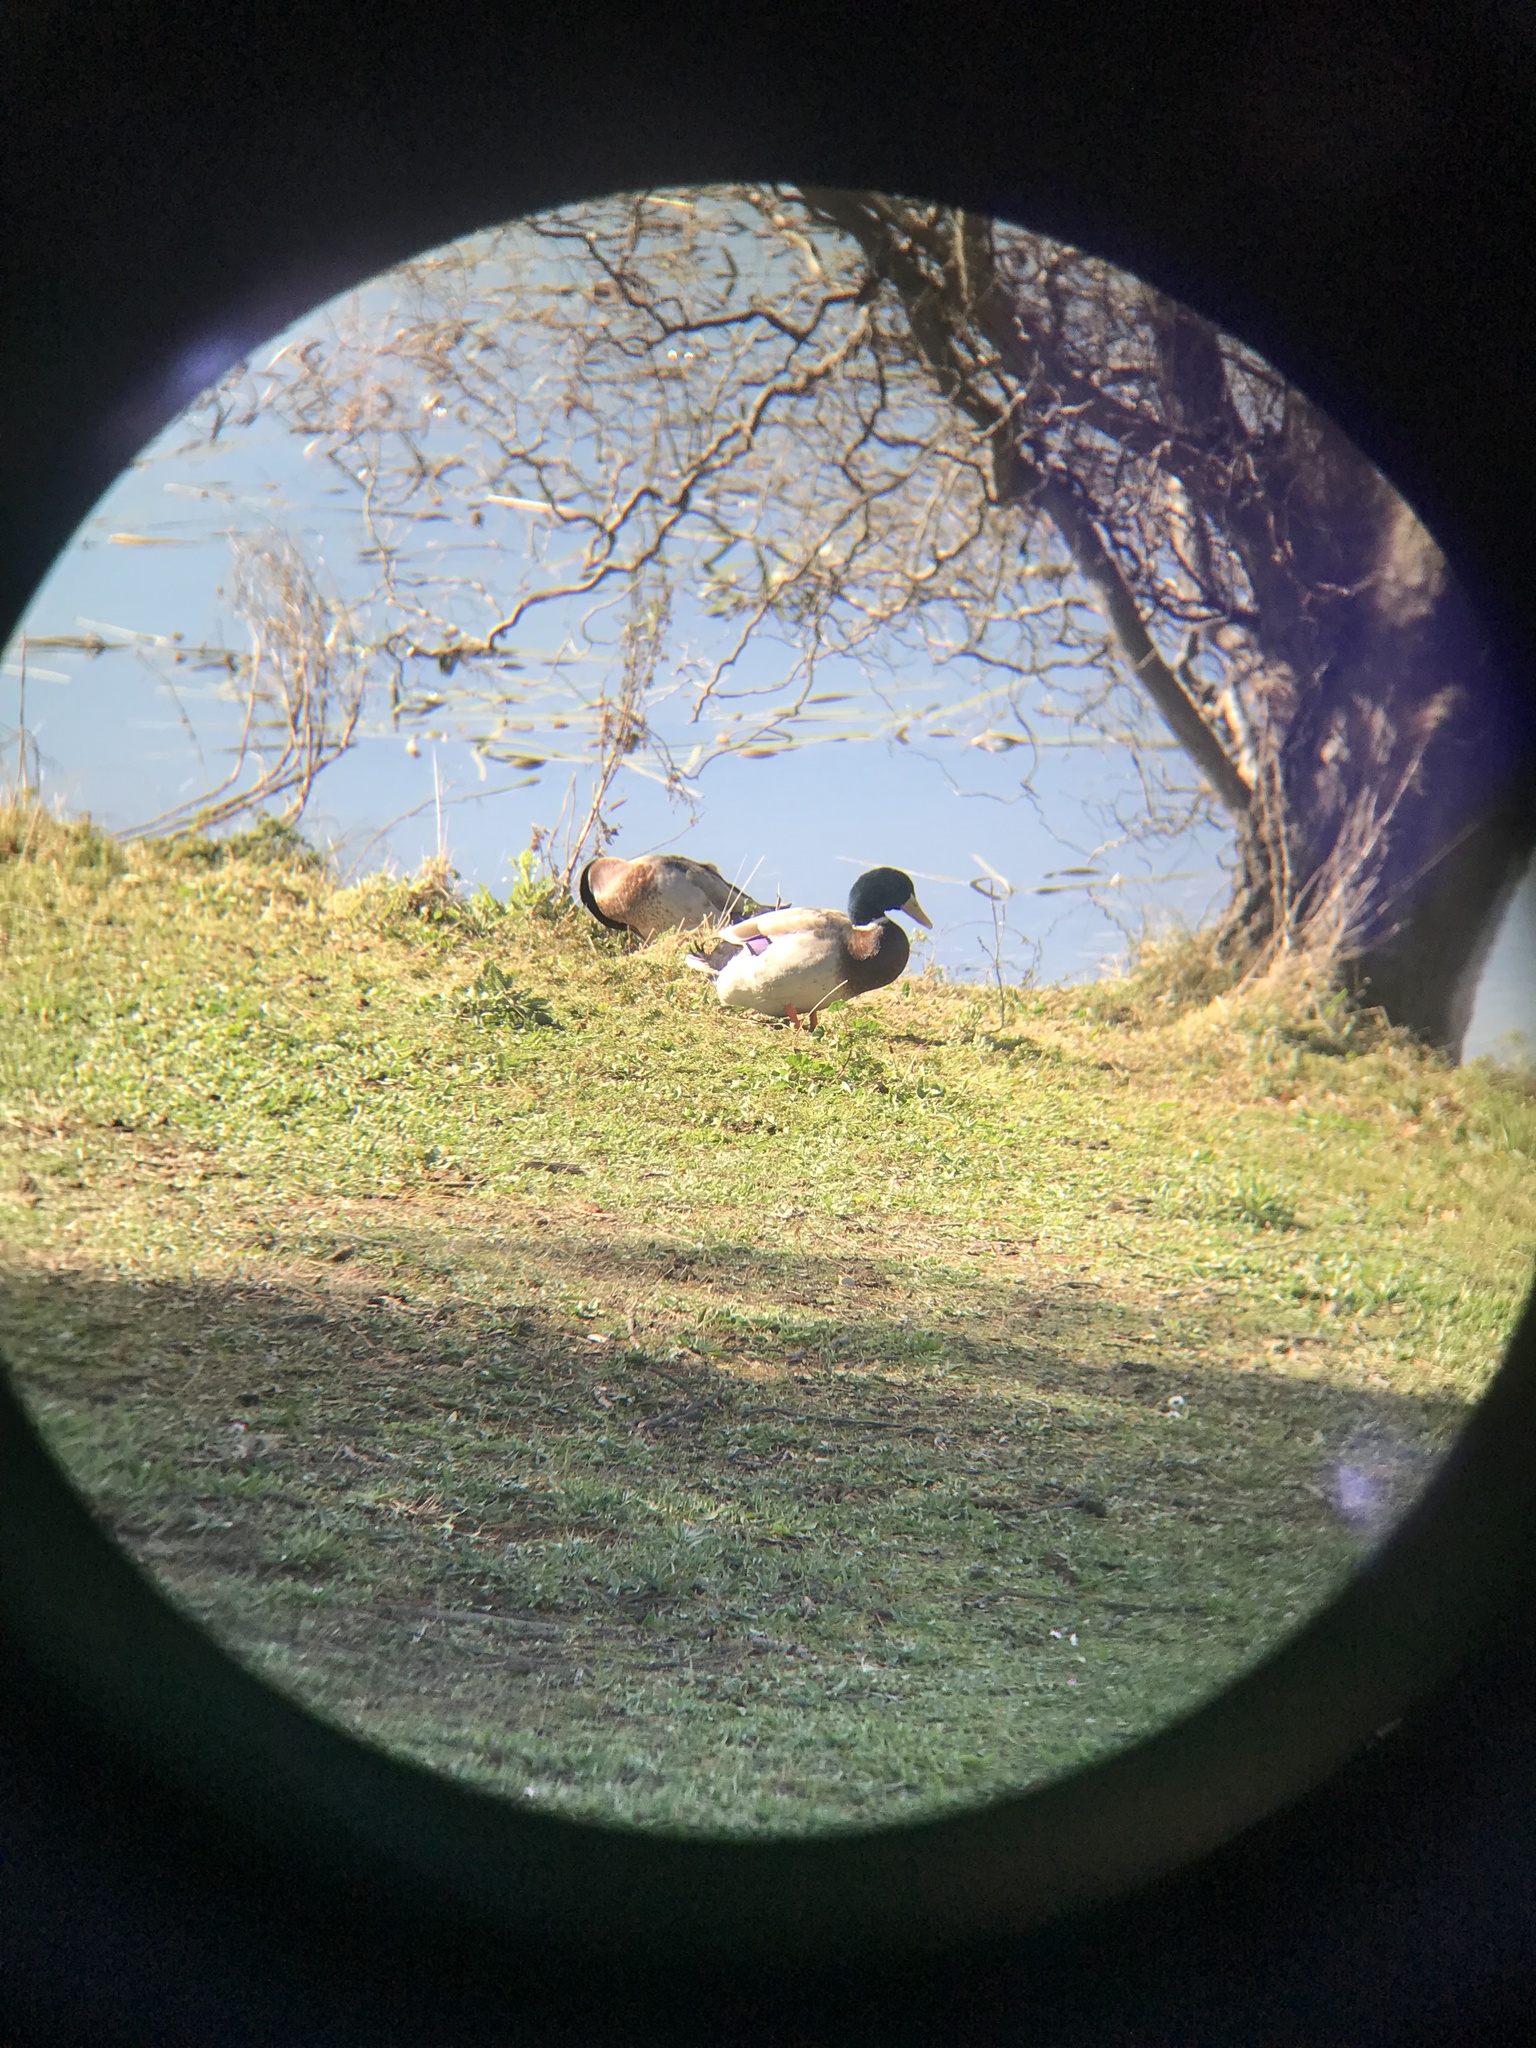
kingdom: Animalia
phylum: Chordata
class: Aves
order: Anseriformes
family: Anatidae
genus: Anas
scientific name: Anas platyrhynchos
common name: Mallard
